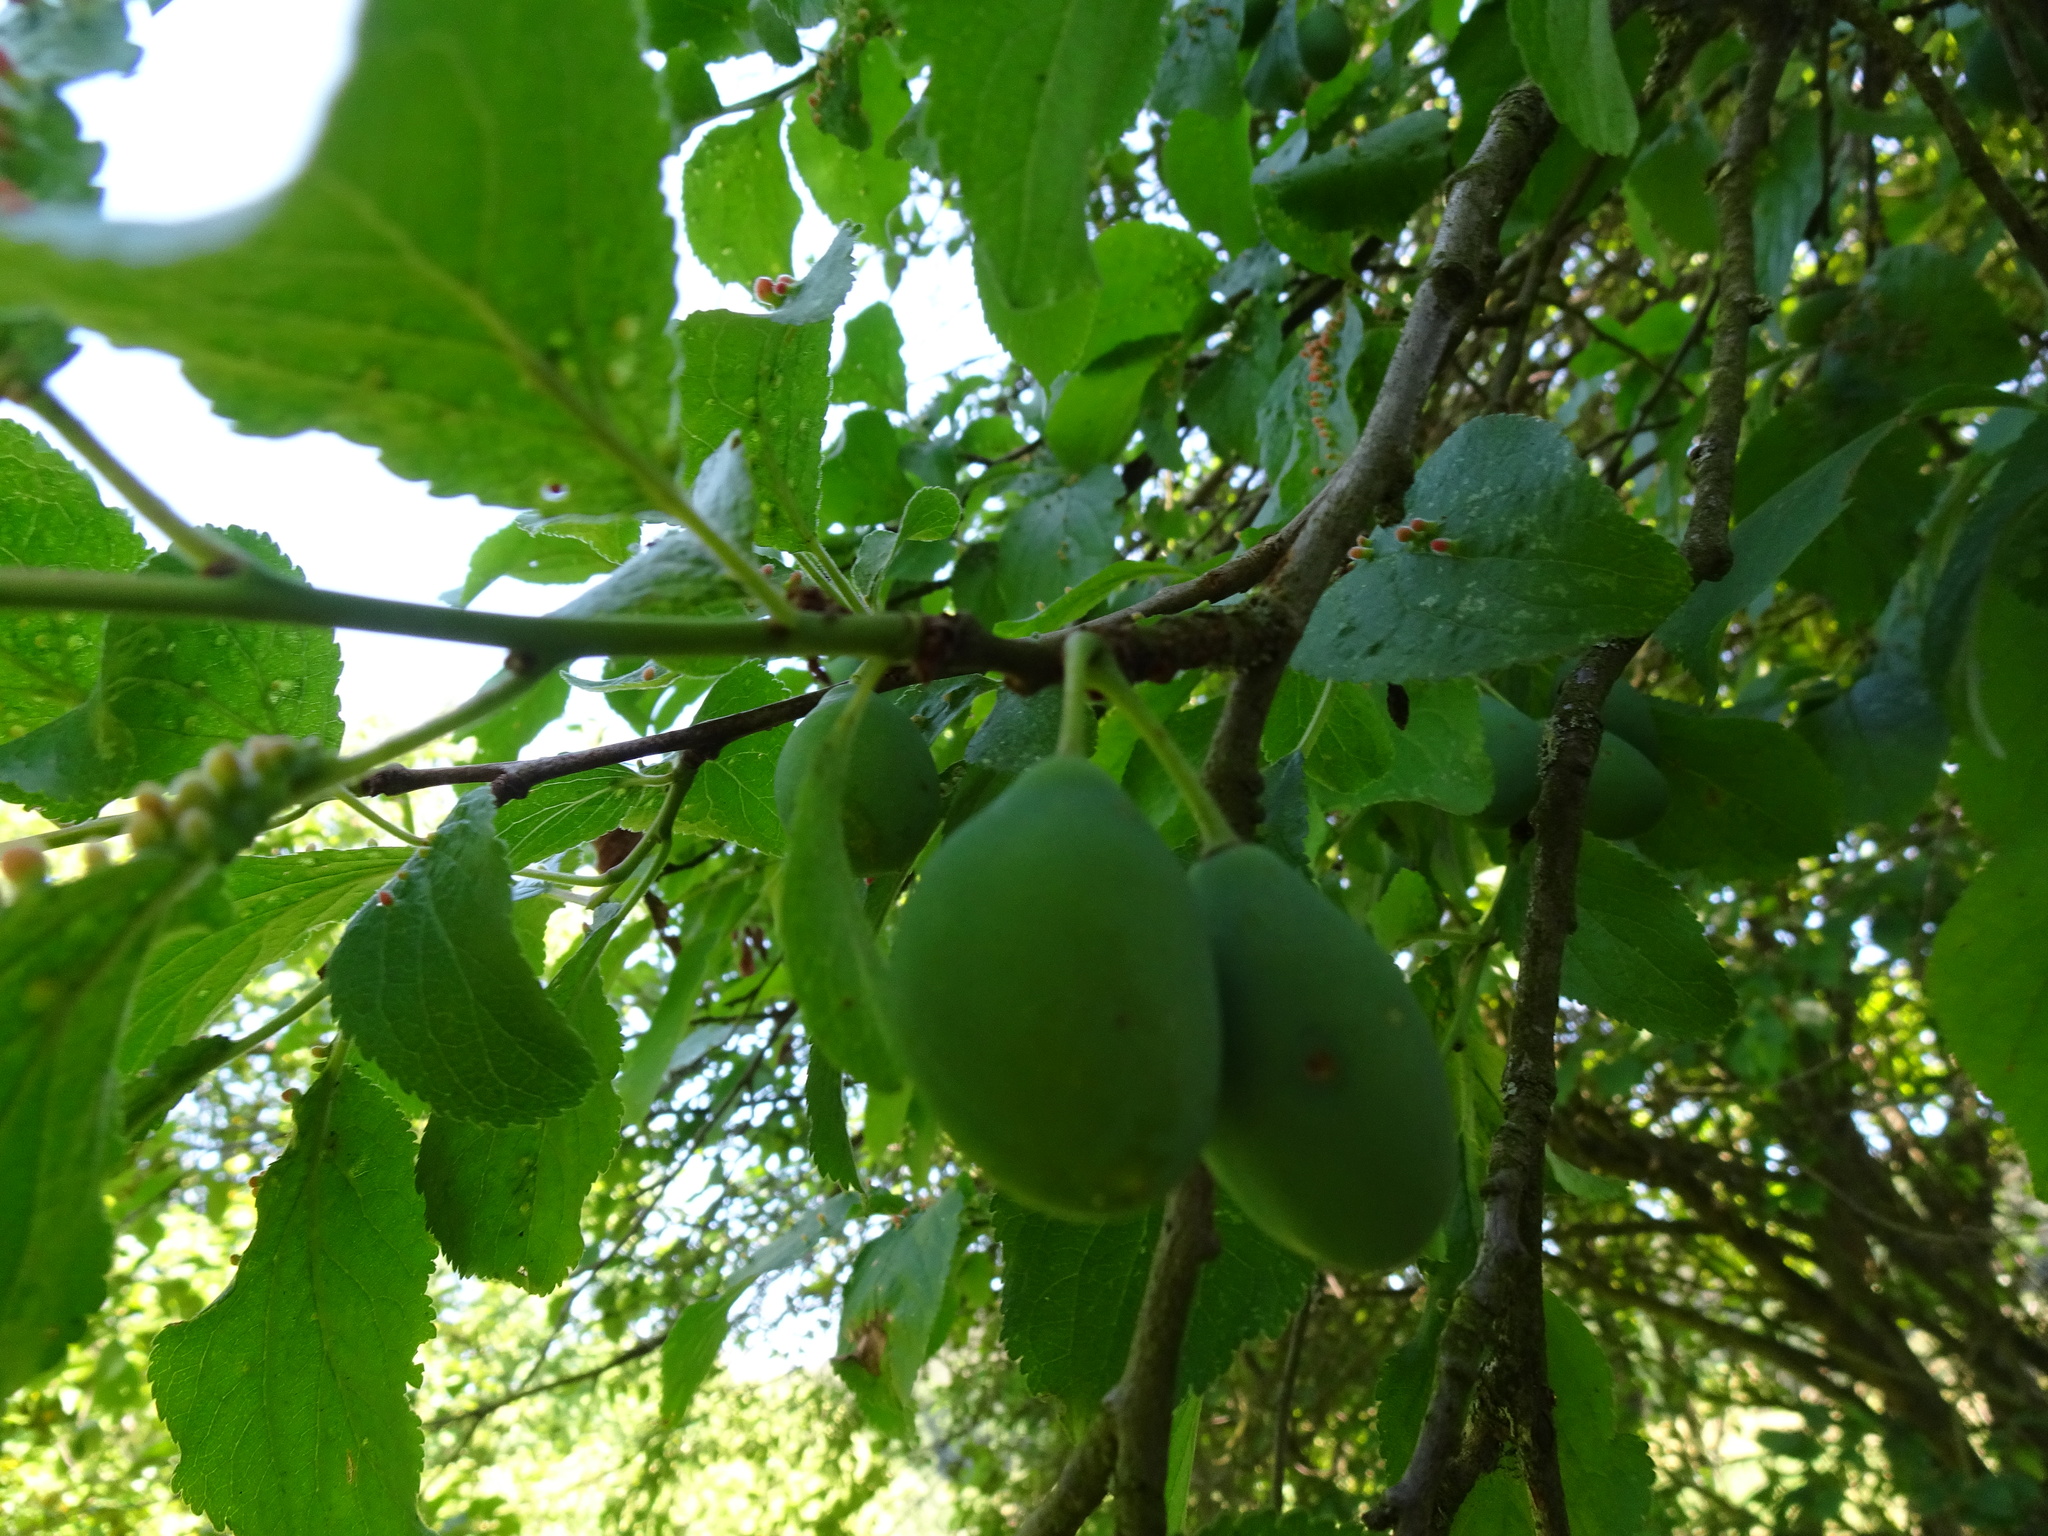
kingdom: Plantae
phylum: Tracheophyta
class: Magnoliopsida
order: Rosales
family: Rosaceae
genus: Prunus
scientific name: Prunus domestica
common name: Wild plum
